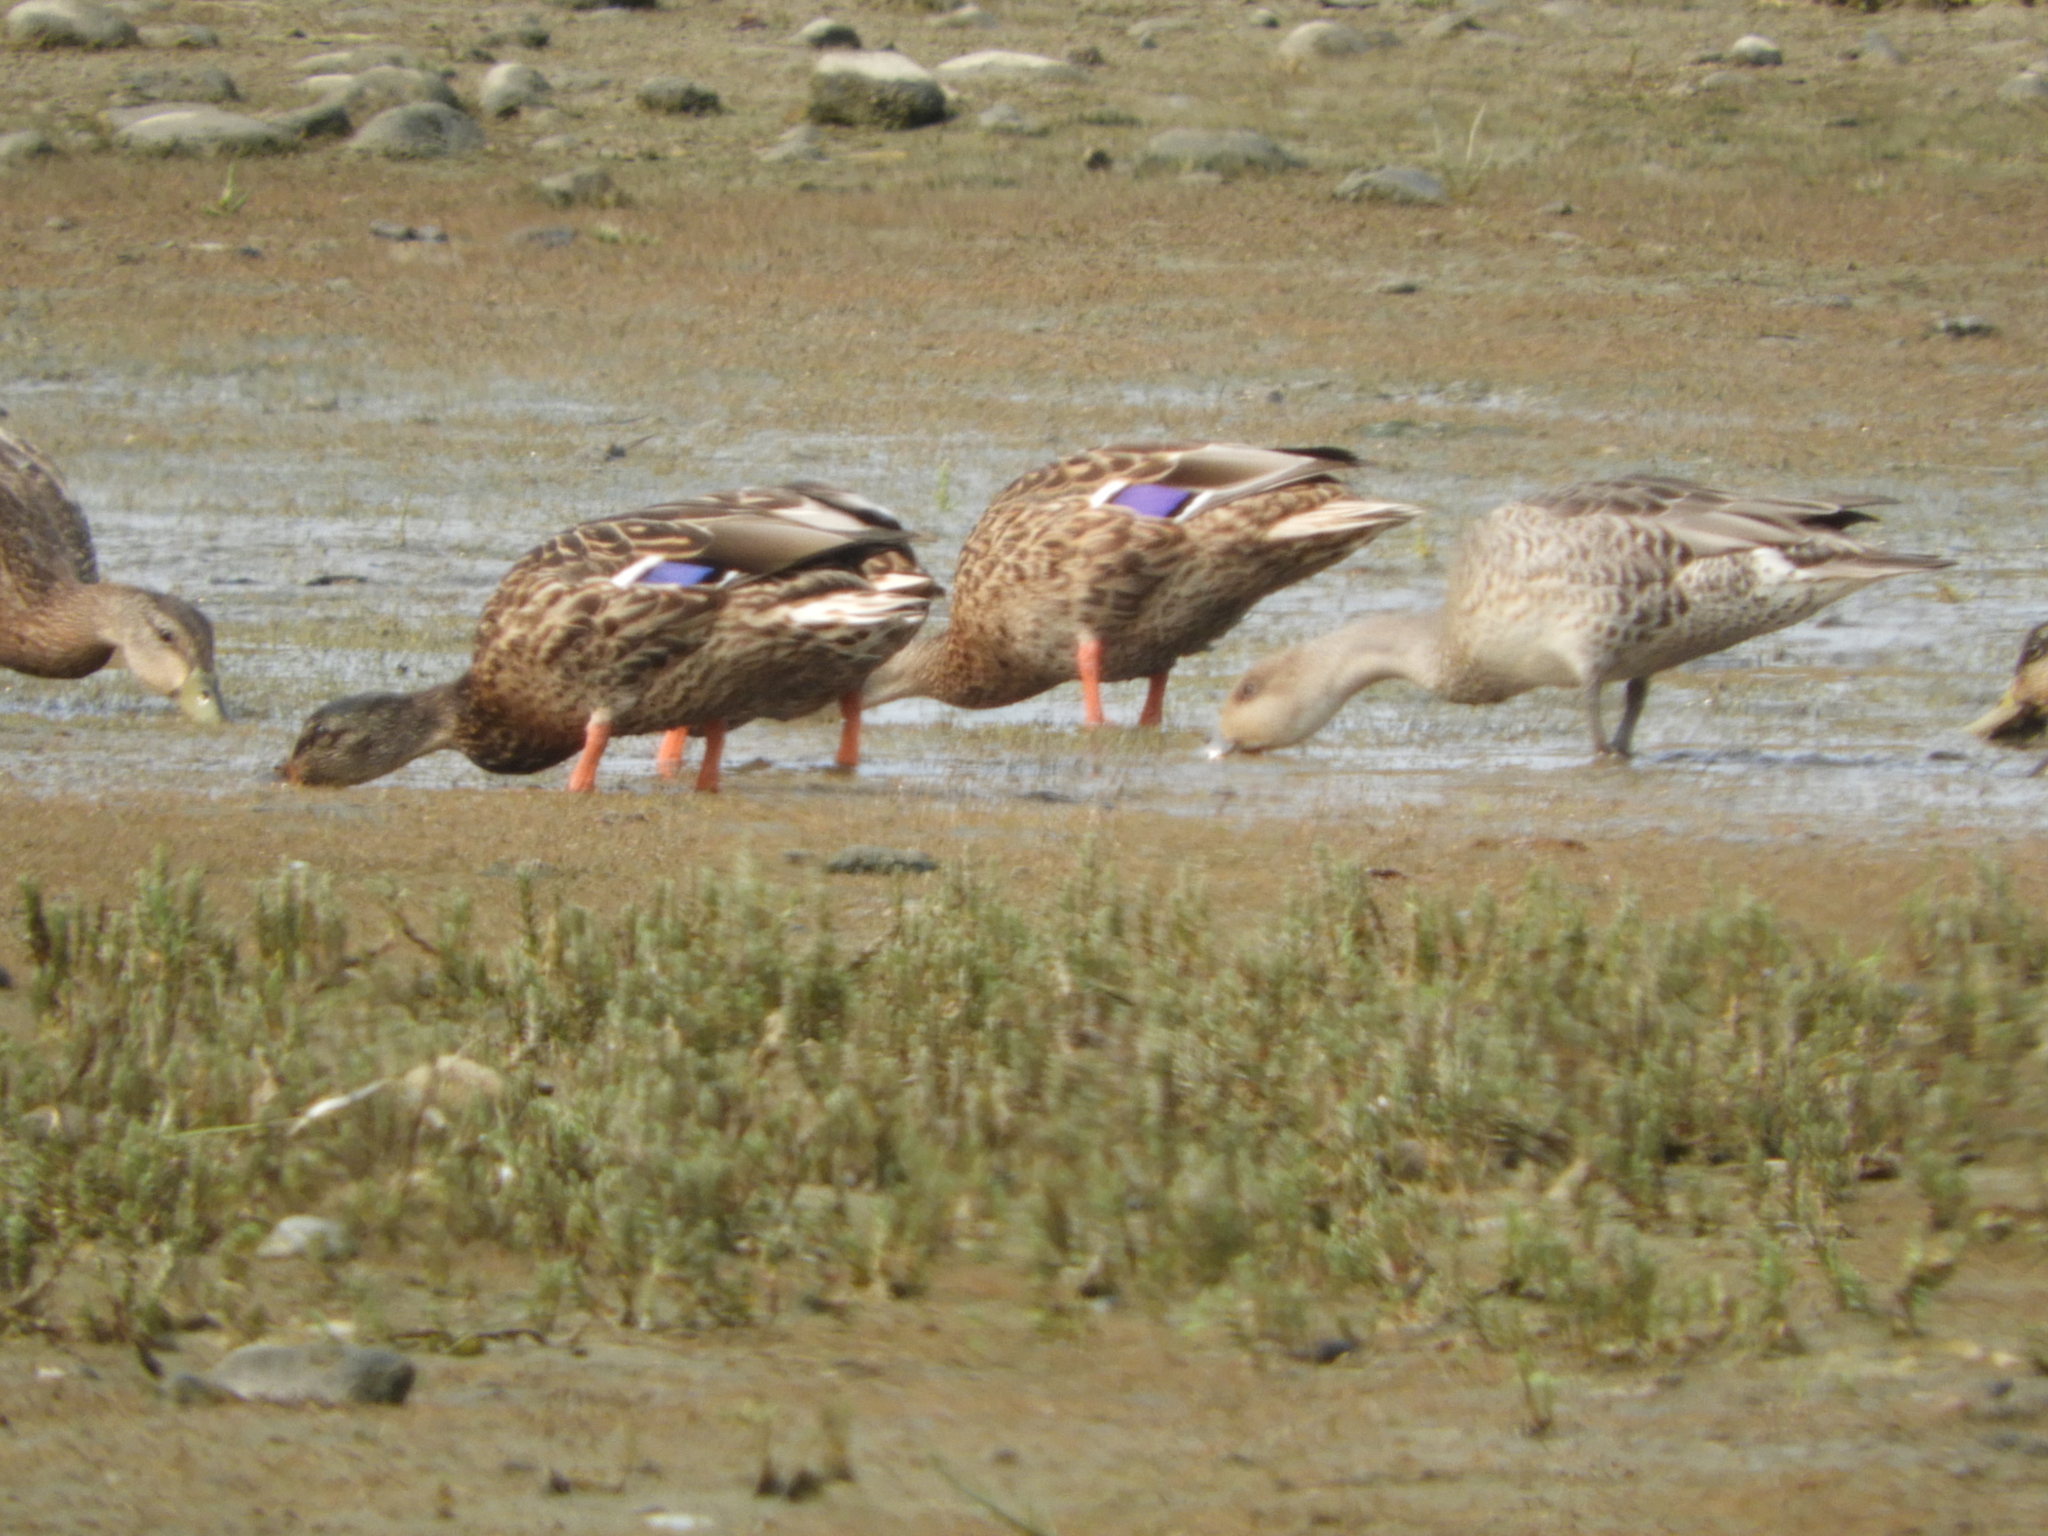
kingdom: Animalia
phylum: Chordata
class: Aves
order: Anseriformes
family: Anatidae
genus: Anas
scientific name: Anas platyrhynchos
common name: Mallard
